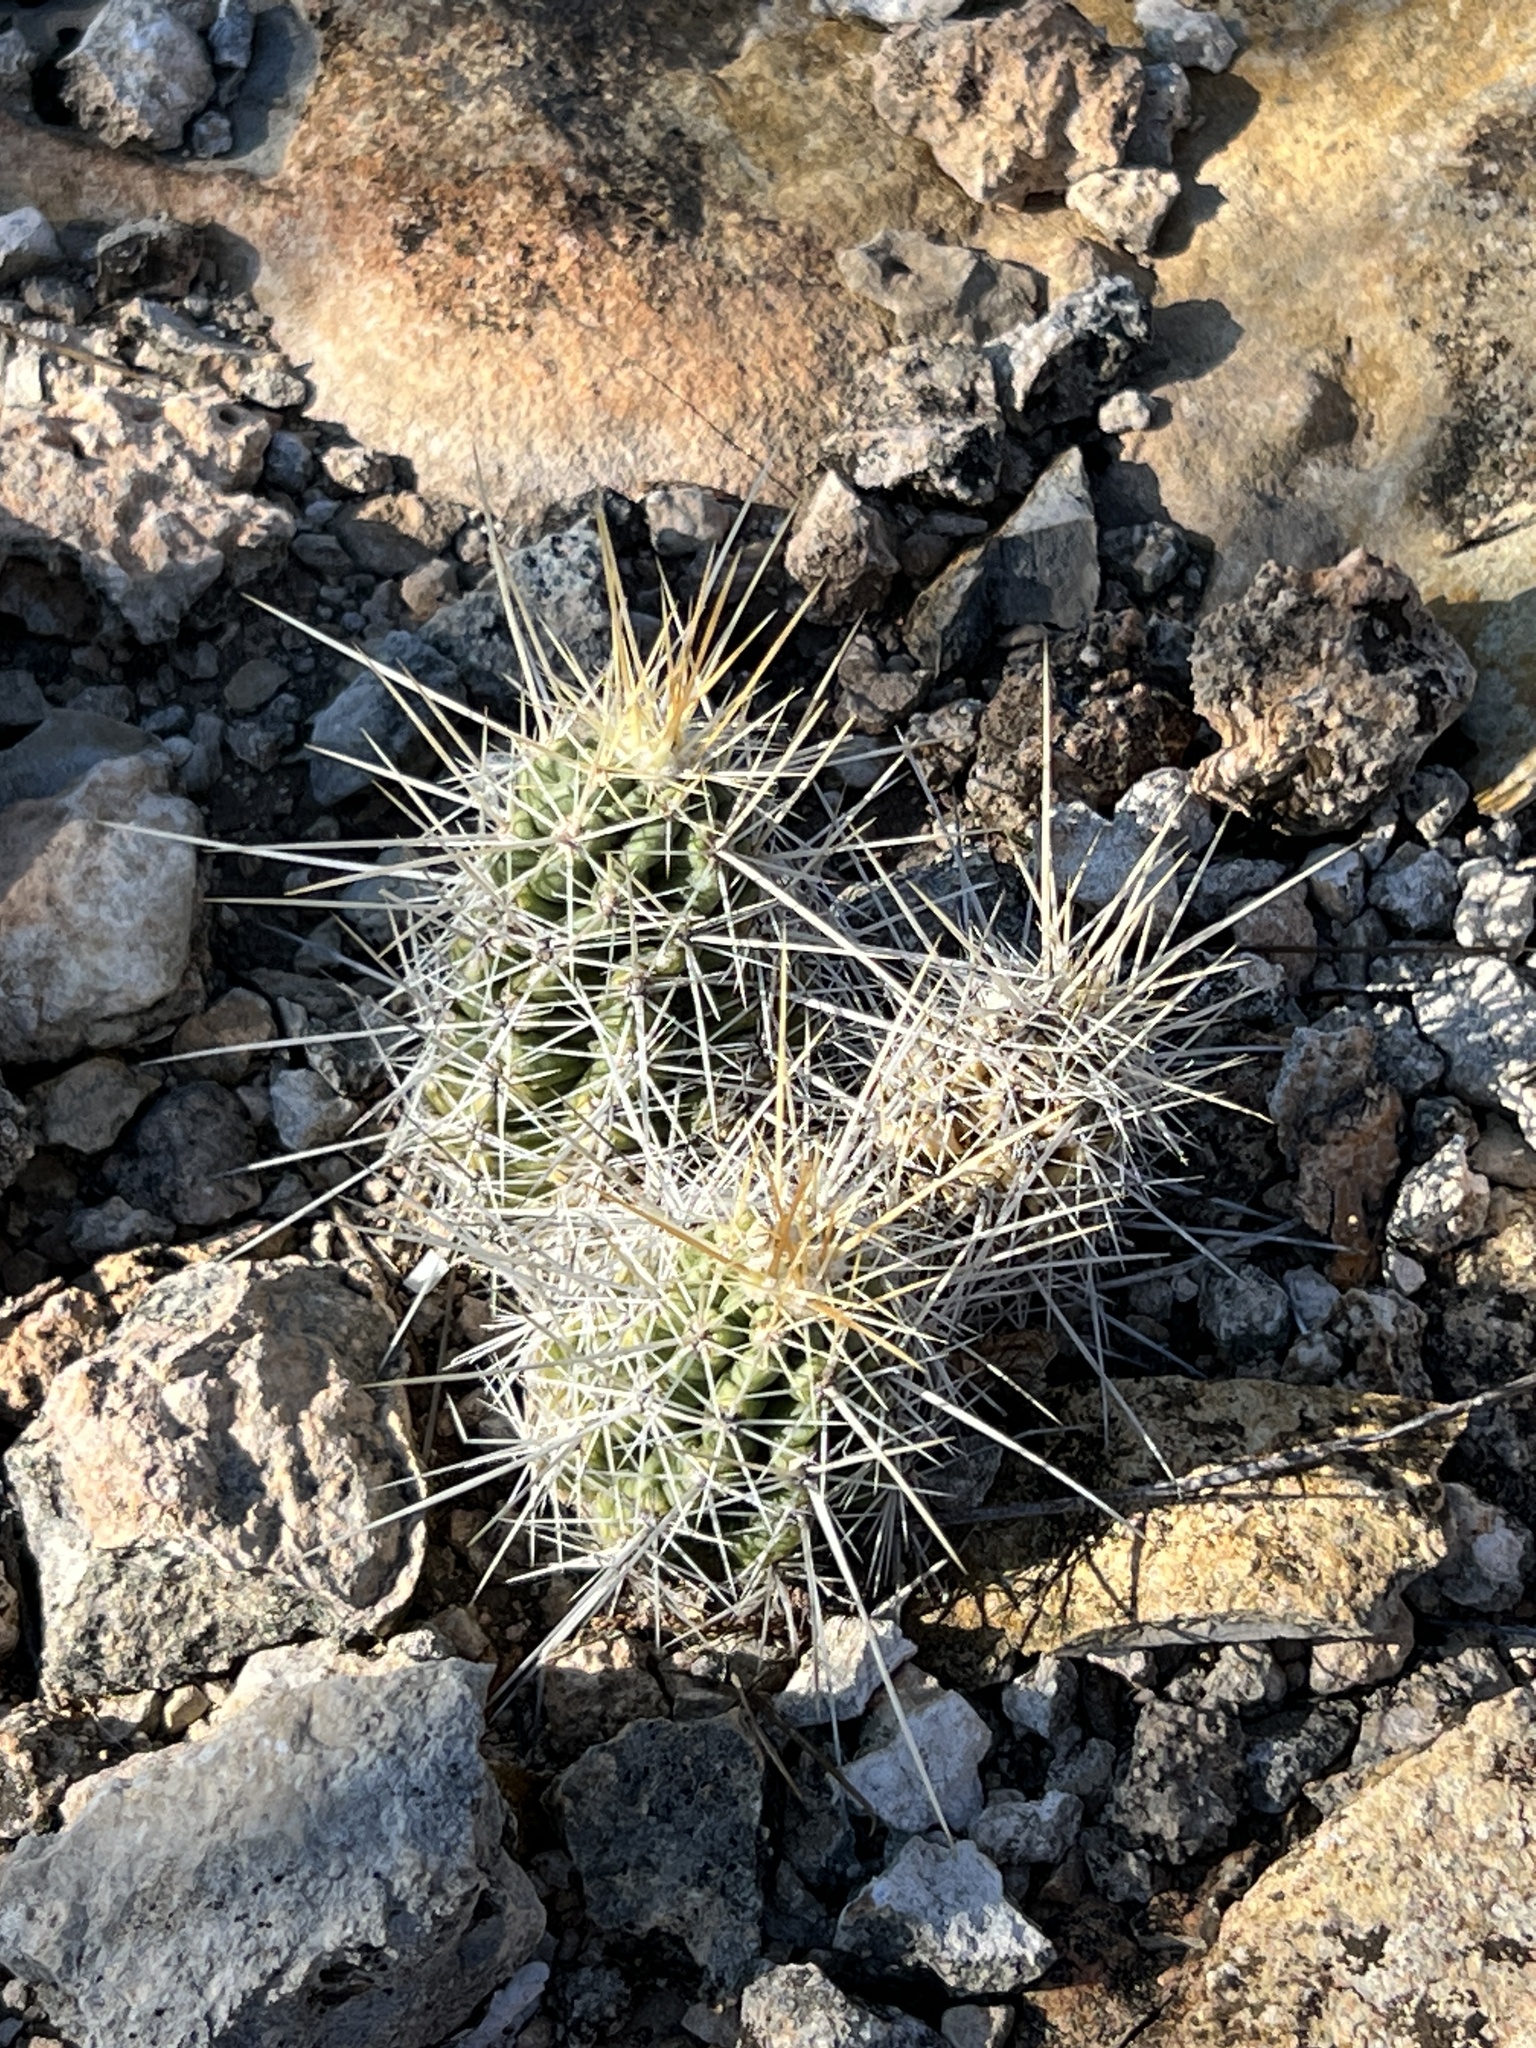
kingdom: Plantae
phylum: Tracheophyta
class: Magnoliopsida
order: Caryophyllales
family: Cactaceae
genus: Echinocereus
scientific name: Echinocereus enneacanthus
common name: Pitaya
